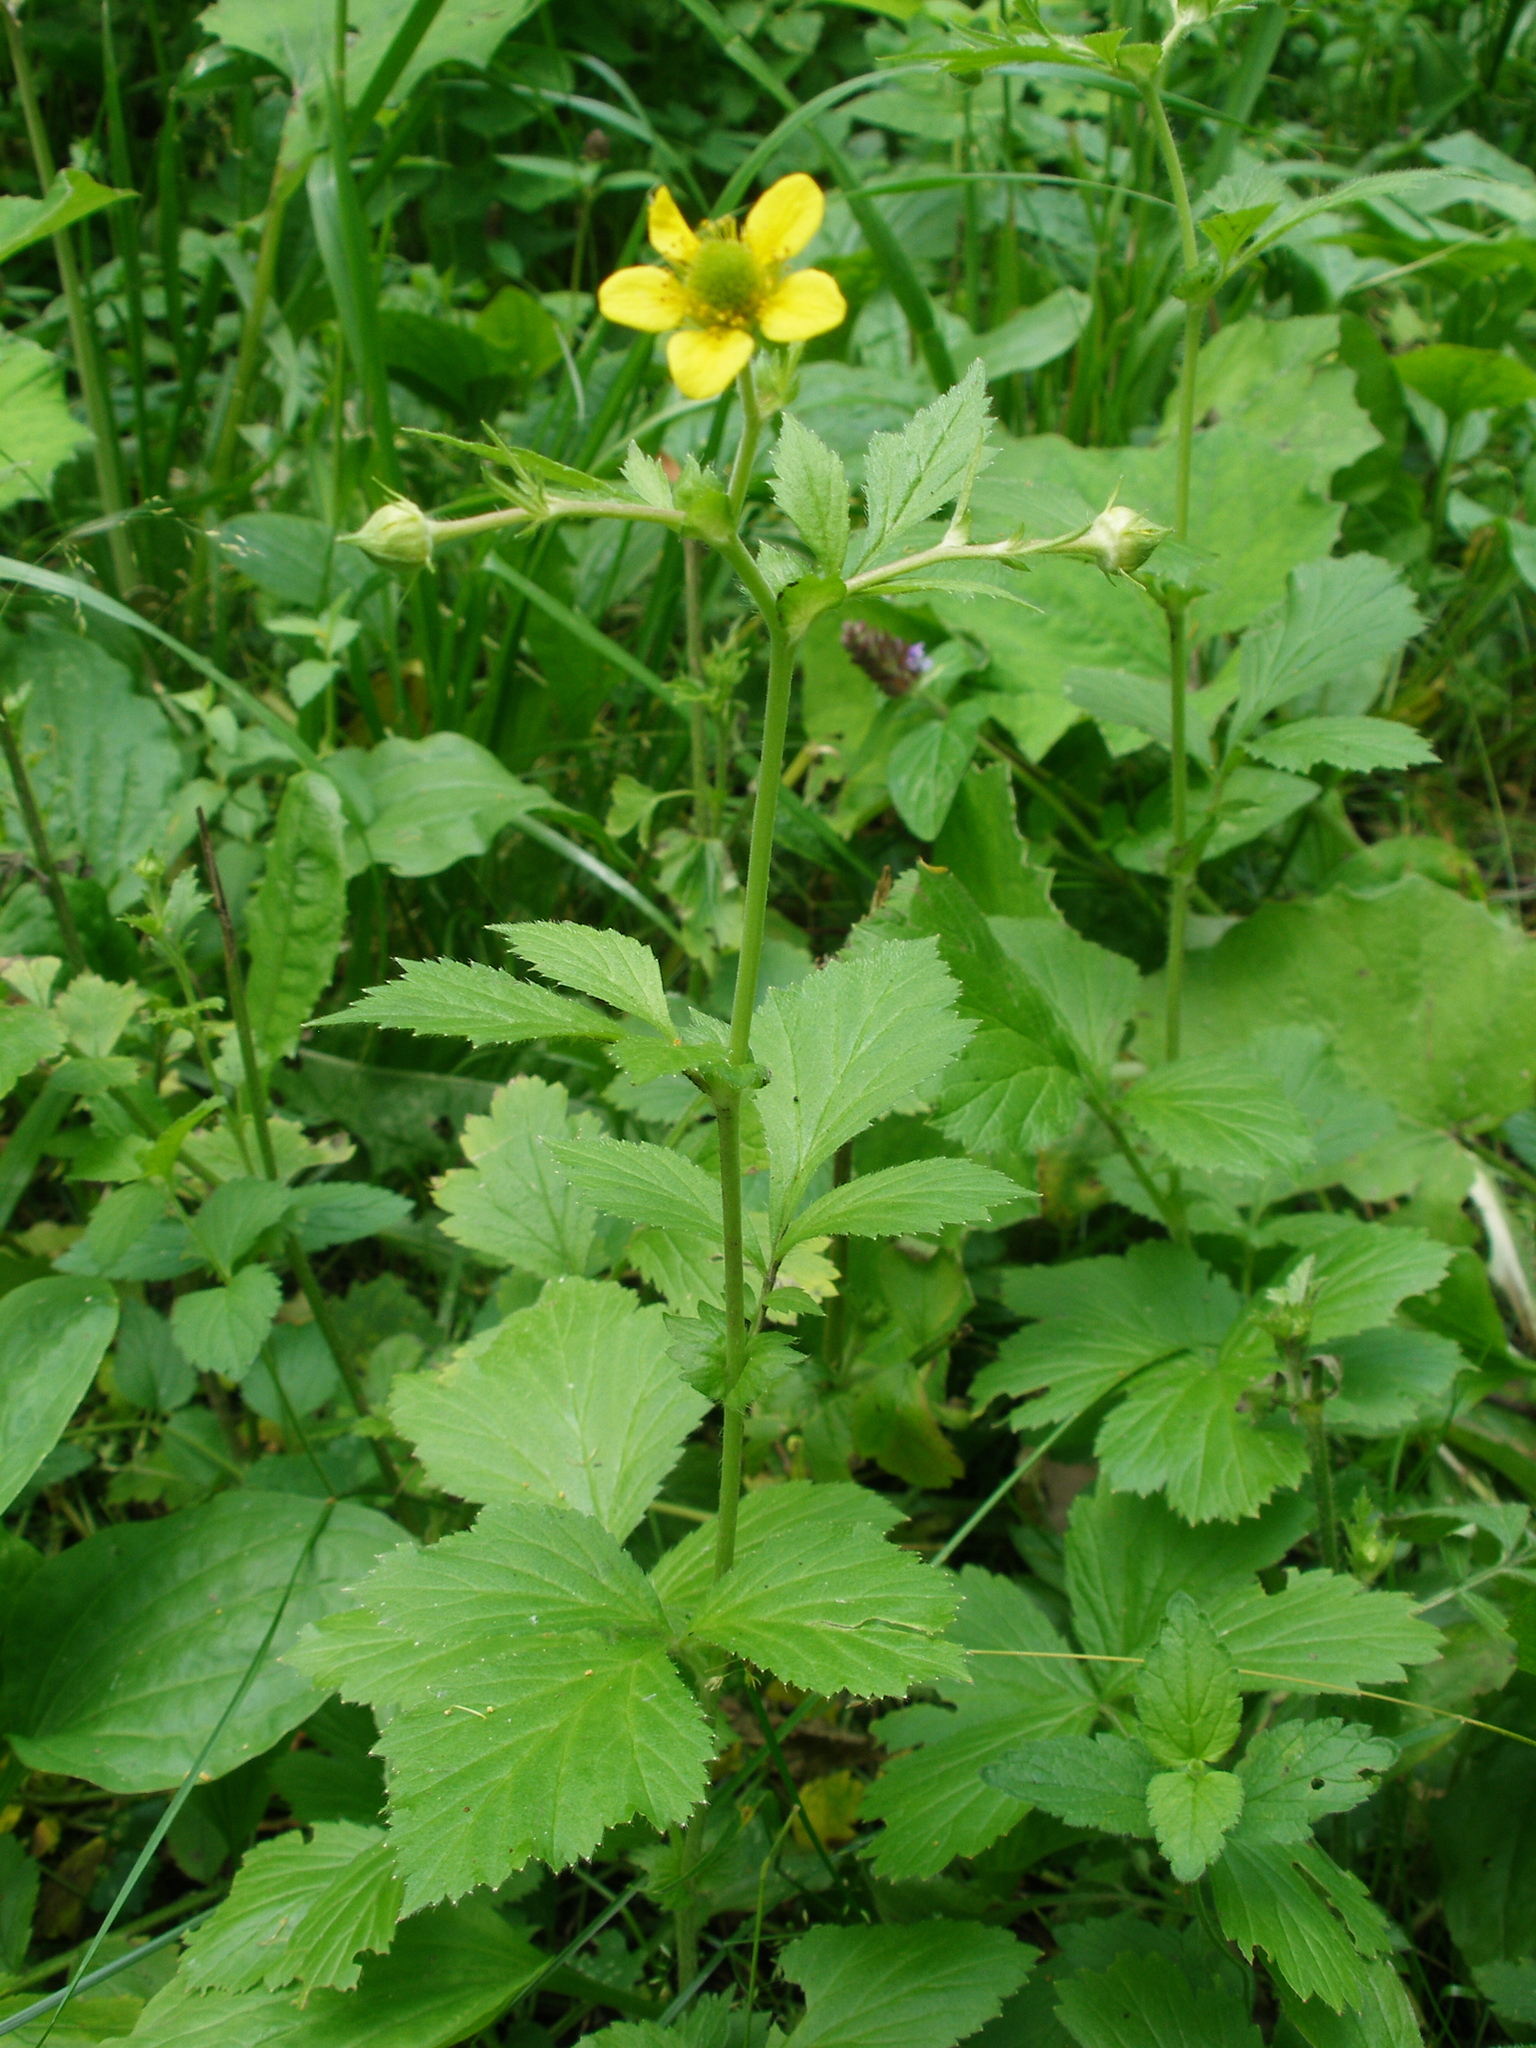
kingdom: Plantae
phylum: Tracheophyta
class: Magnoliopsida
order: Rosales
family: Rosaceae
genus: Geum
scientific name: Geum aleppicum
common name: Yellow avens
